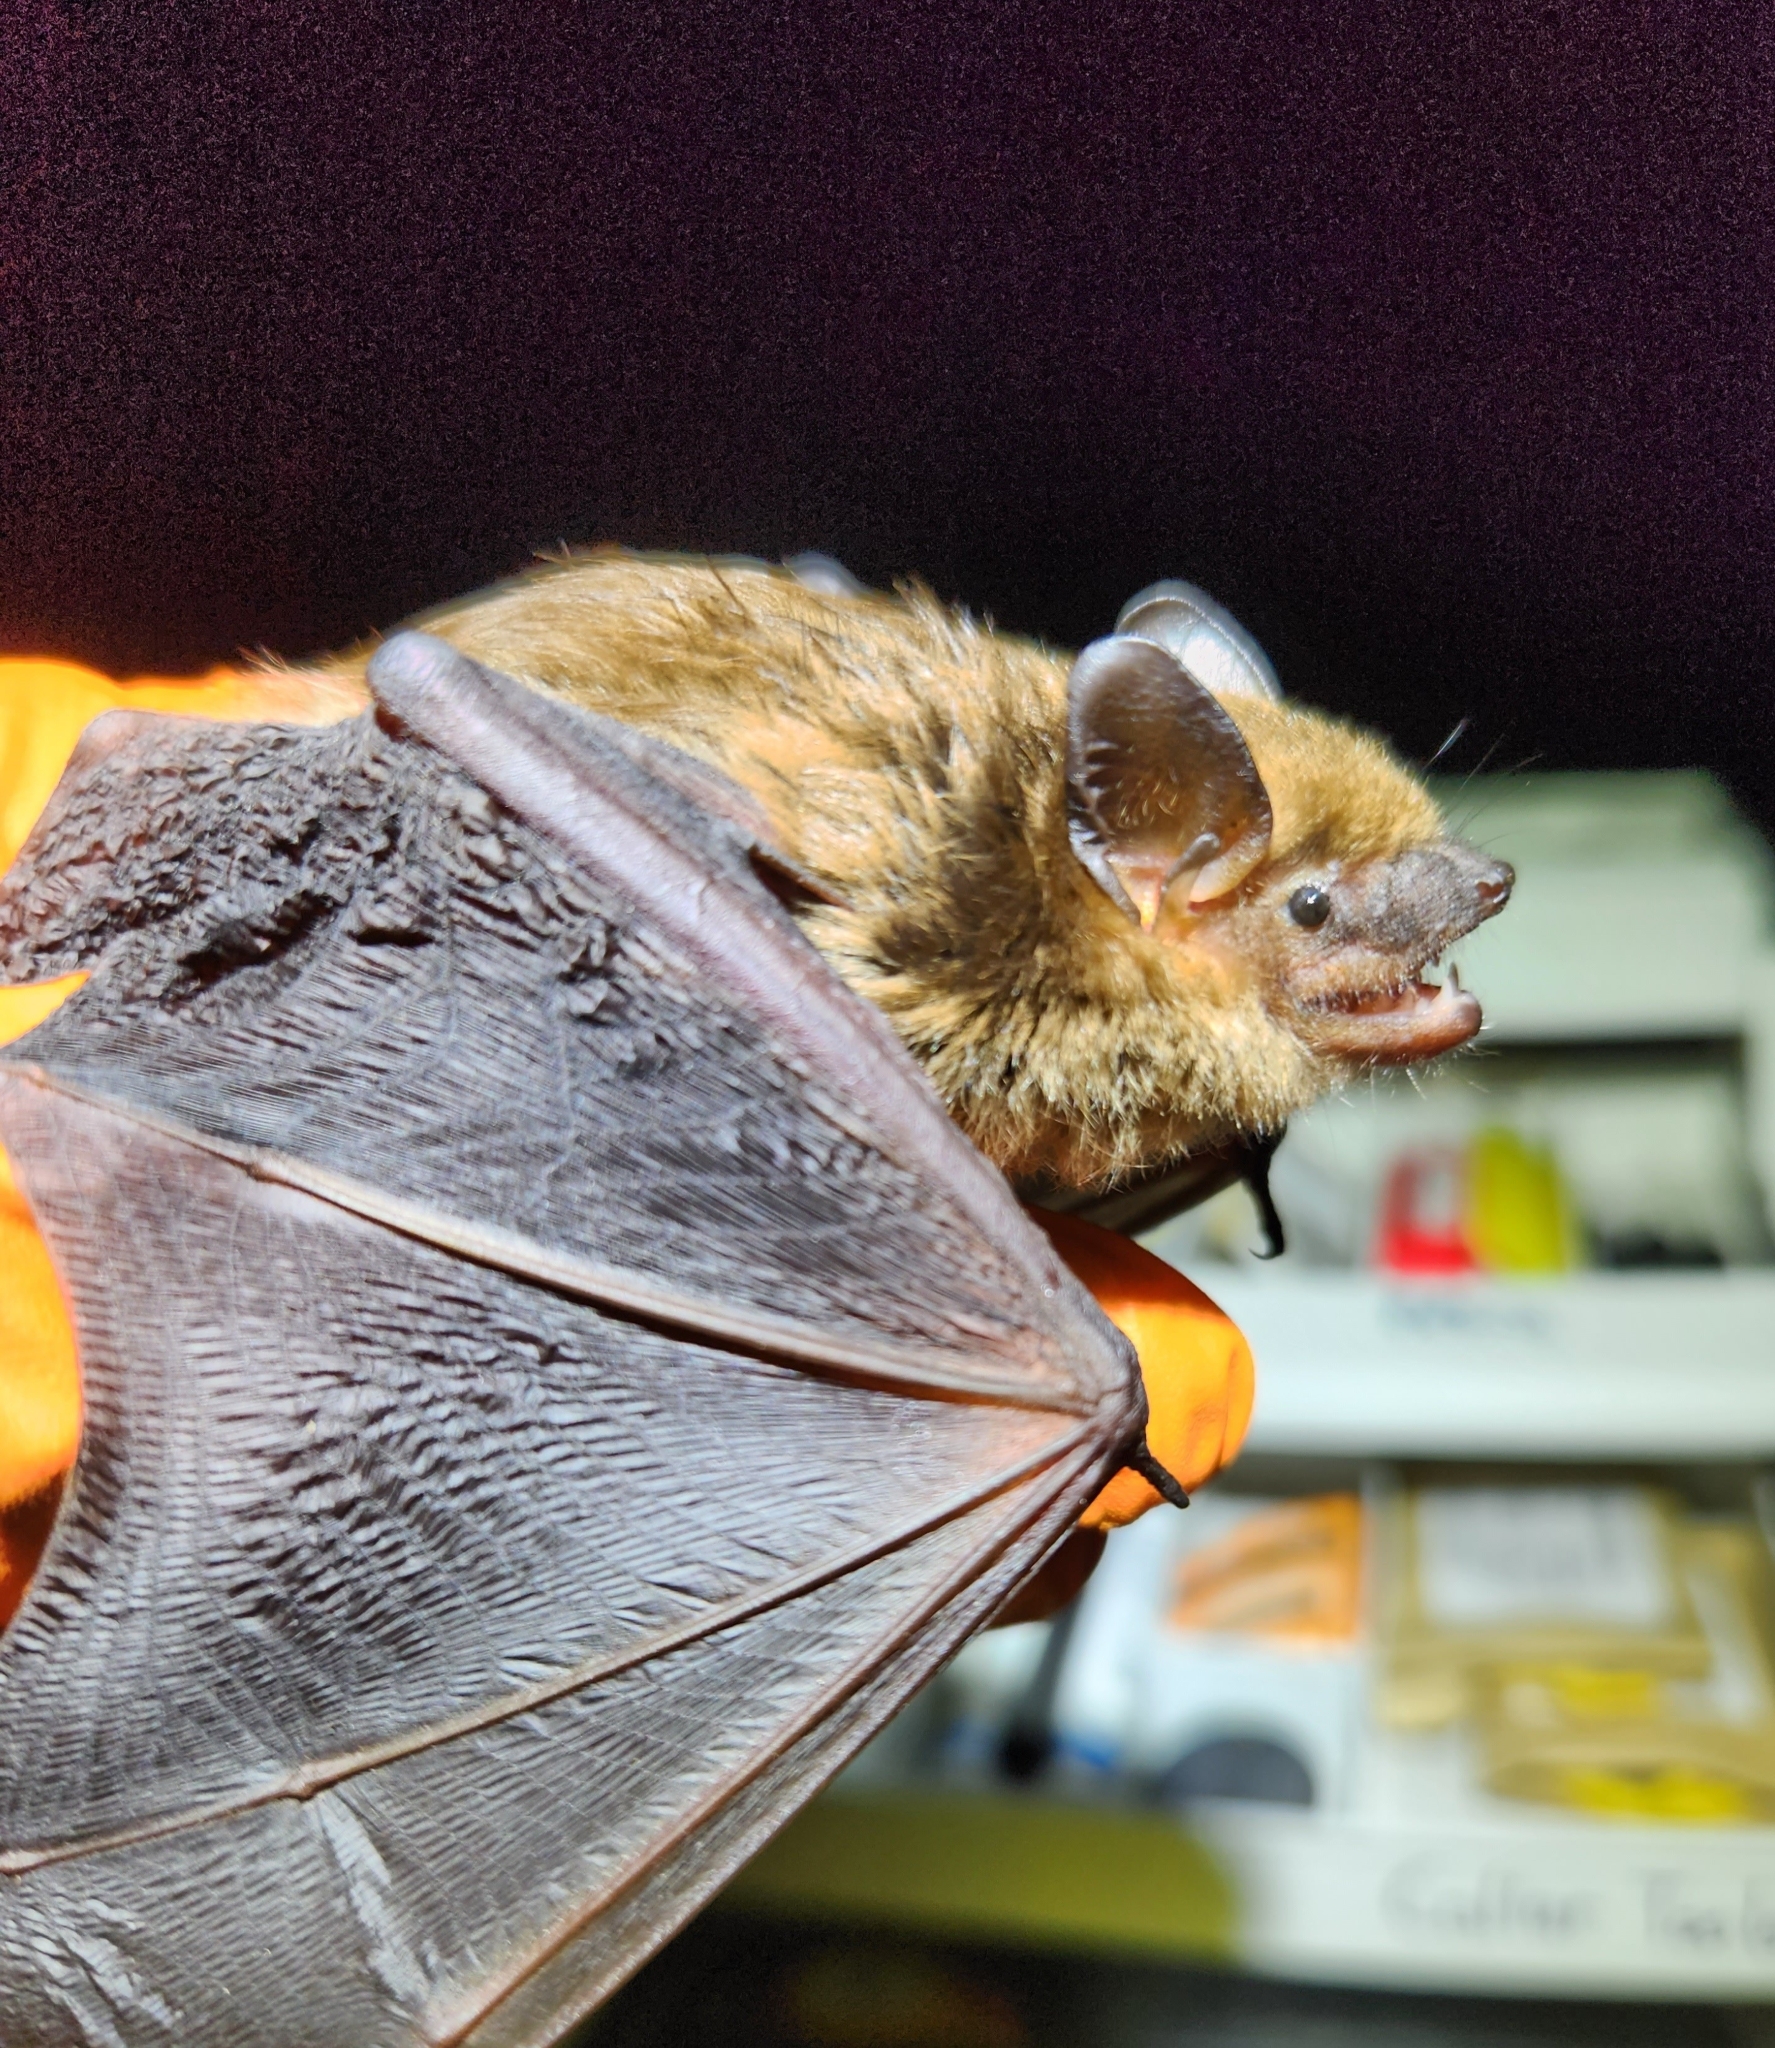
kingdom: Animalia
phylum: Chordata
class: Mammalia
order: Chiroptera
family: Vespertilionidae
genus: Eptesicus
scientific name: Eptesicus fuscus
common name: Big brown bat
